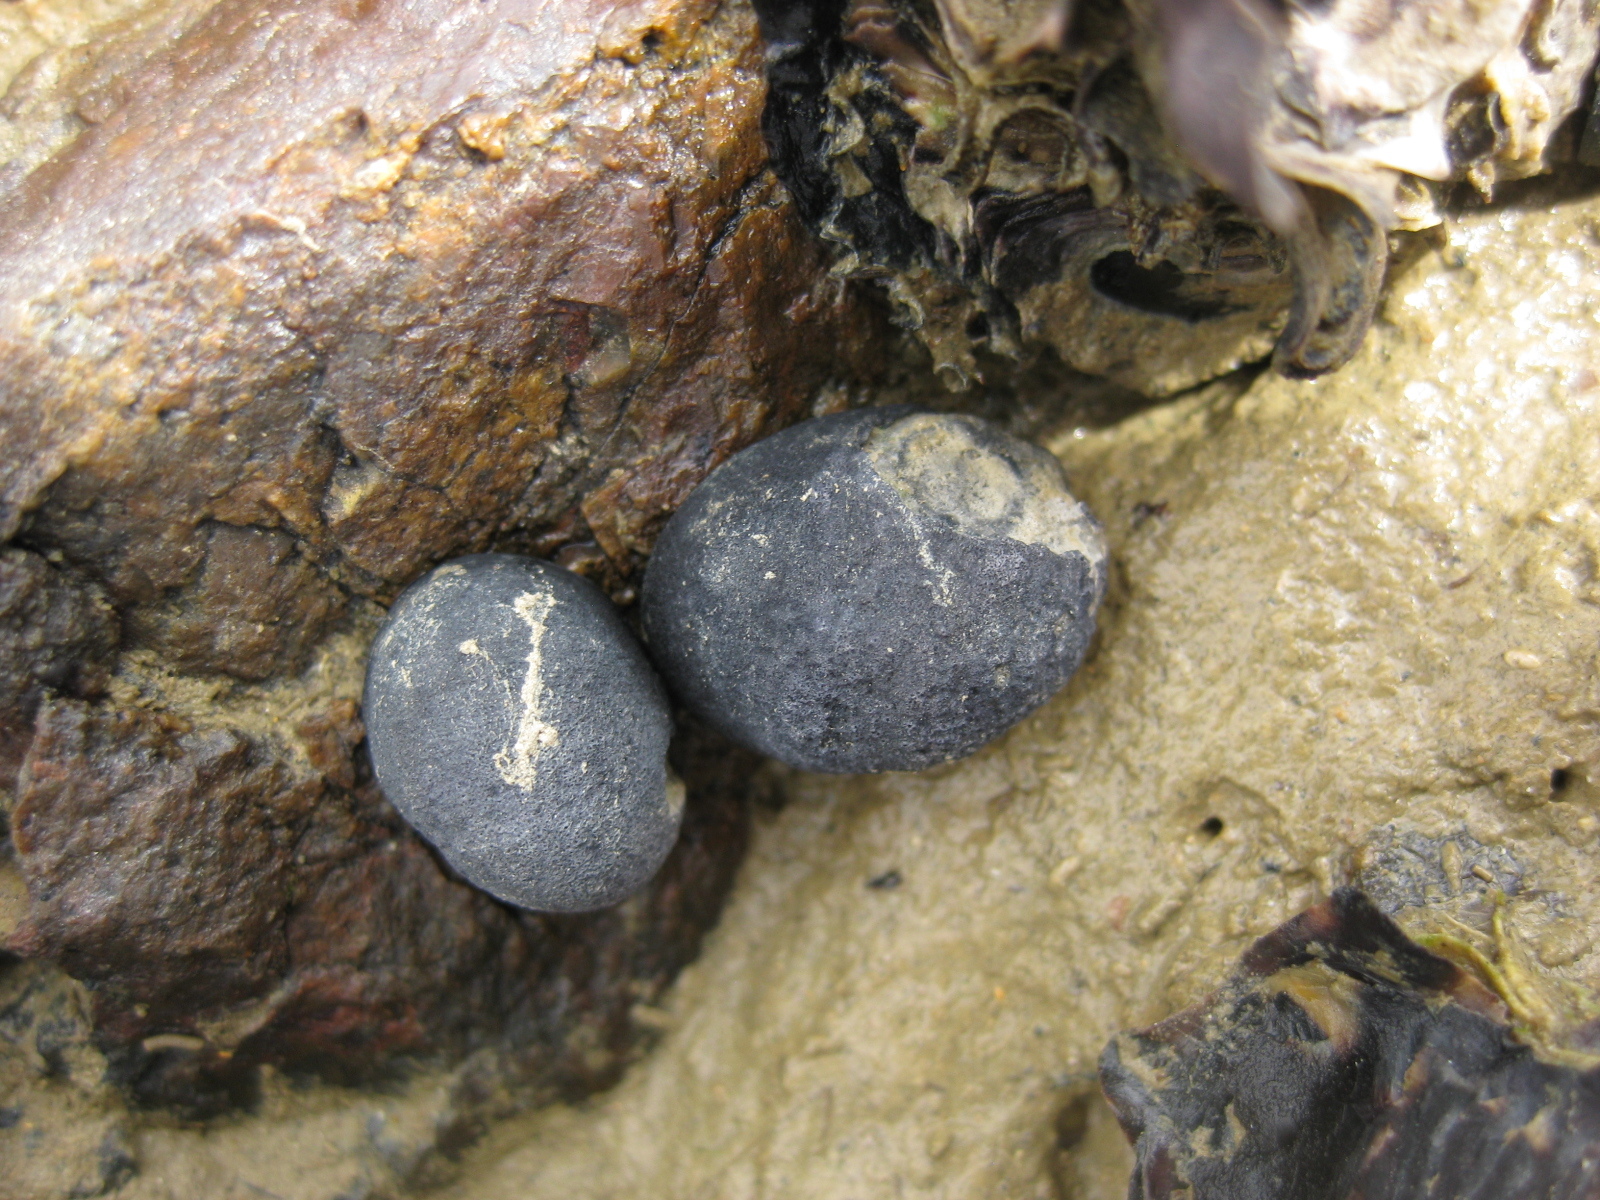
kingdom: Animalia
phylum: Mollusca
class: Gastropoda
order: Cycloneritida
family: Neritidae
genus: Nerita
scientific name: Nerita melanotragus
